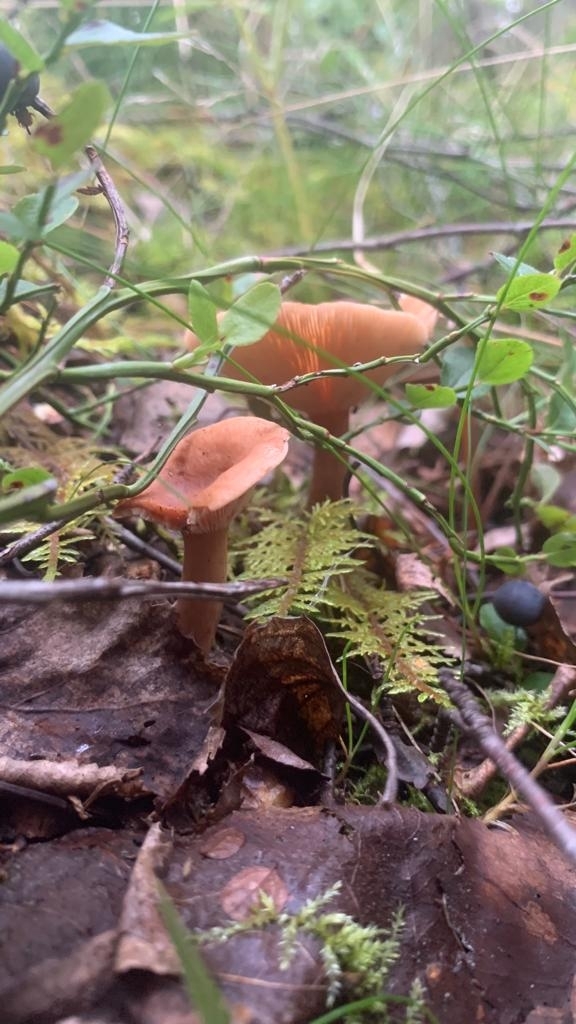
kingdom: Fungi
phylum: Basidiomycota
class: Agaricomycetes
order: Russulales
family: Russulaceae
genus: Lactarius
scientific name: Lactarius tabidus
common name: Birch milkcap
